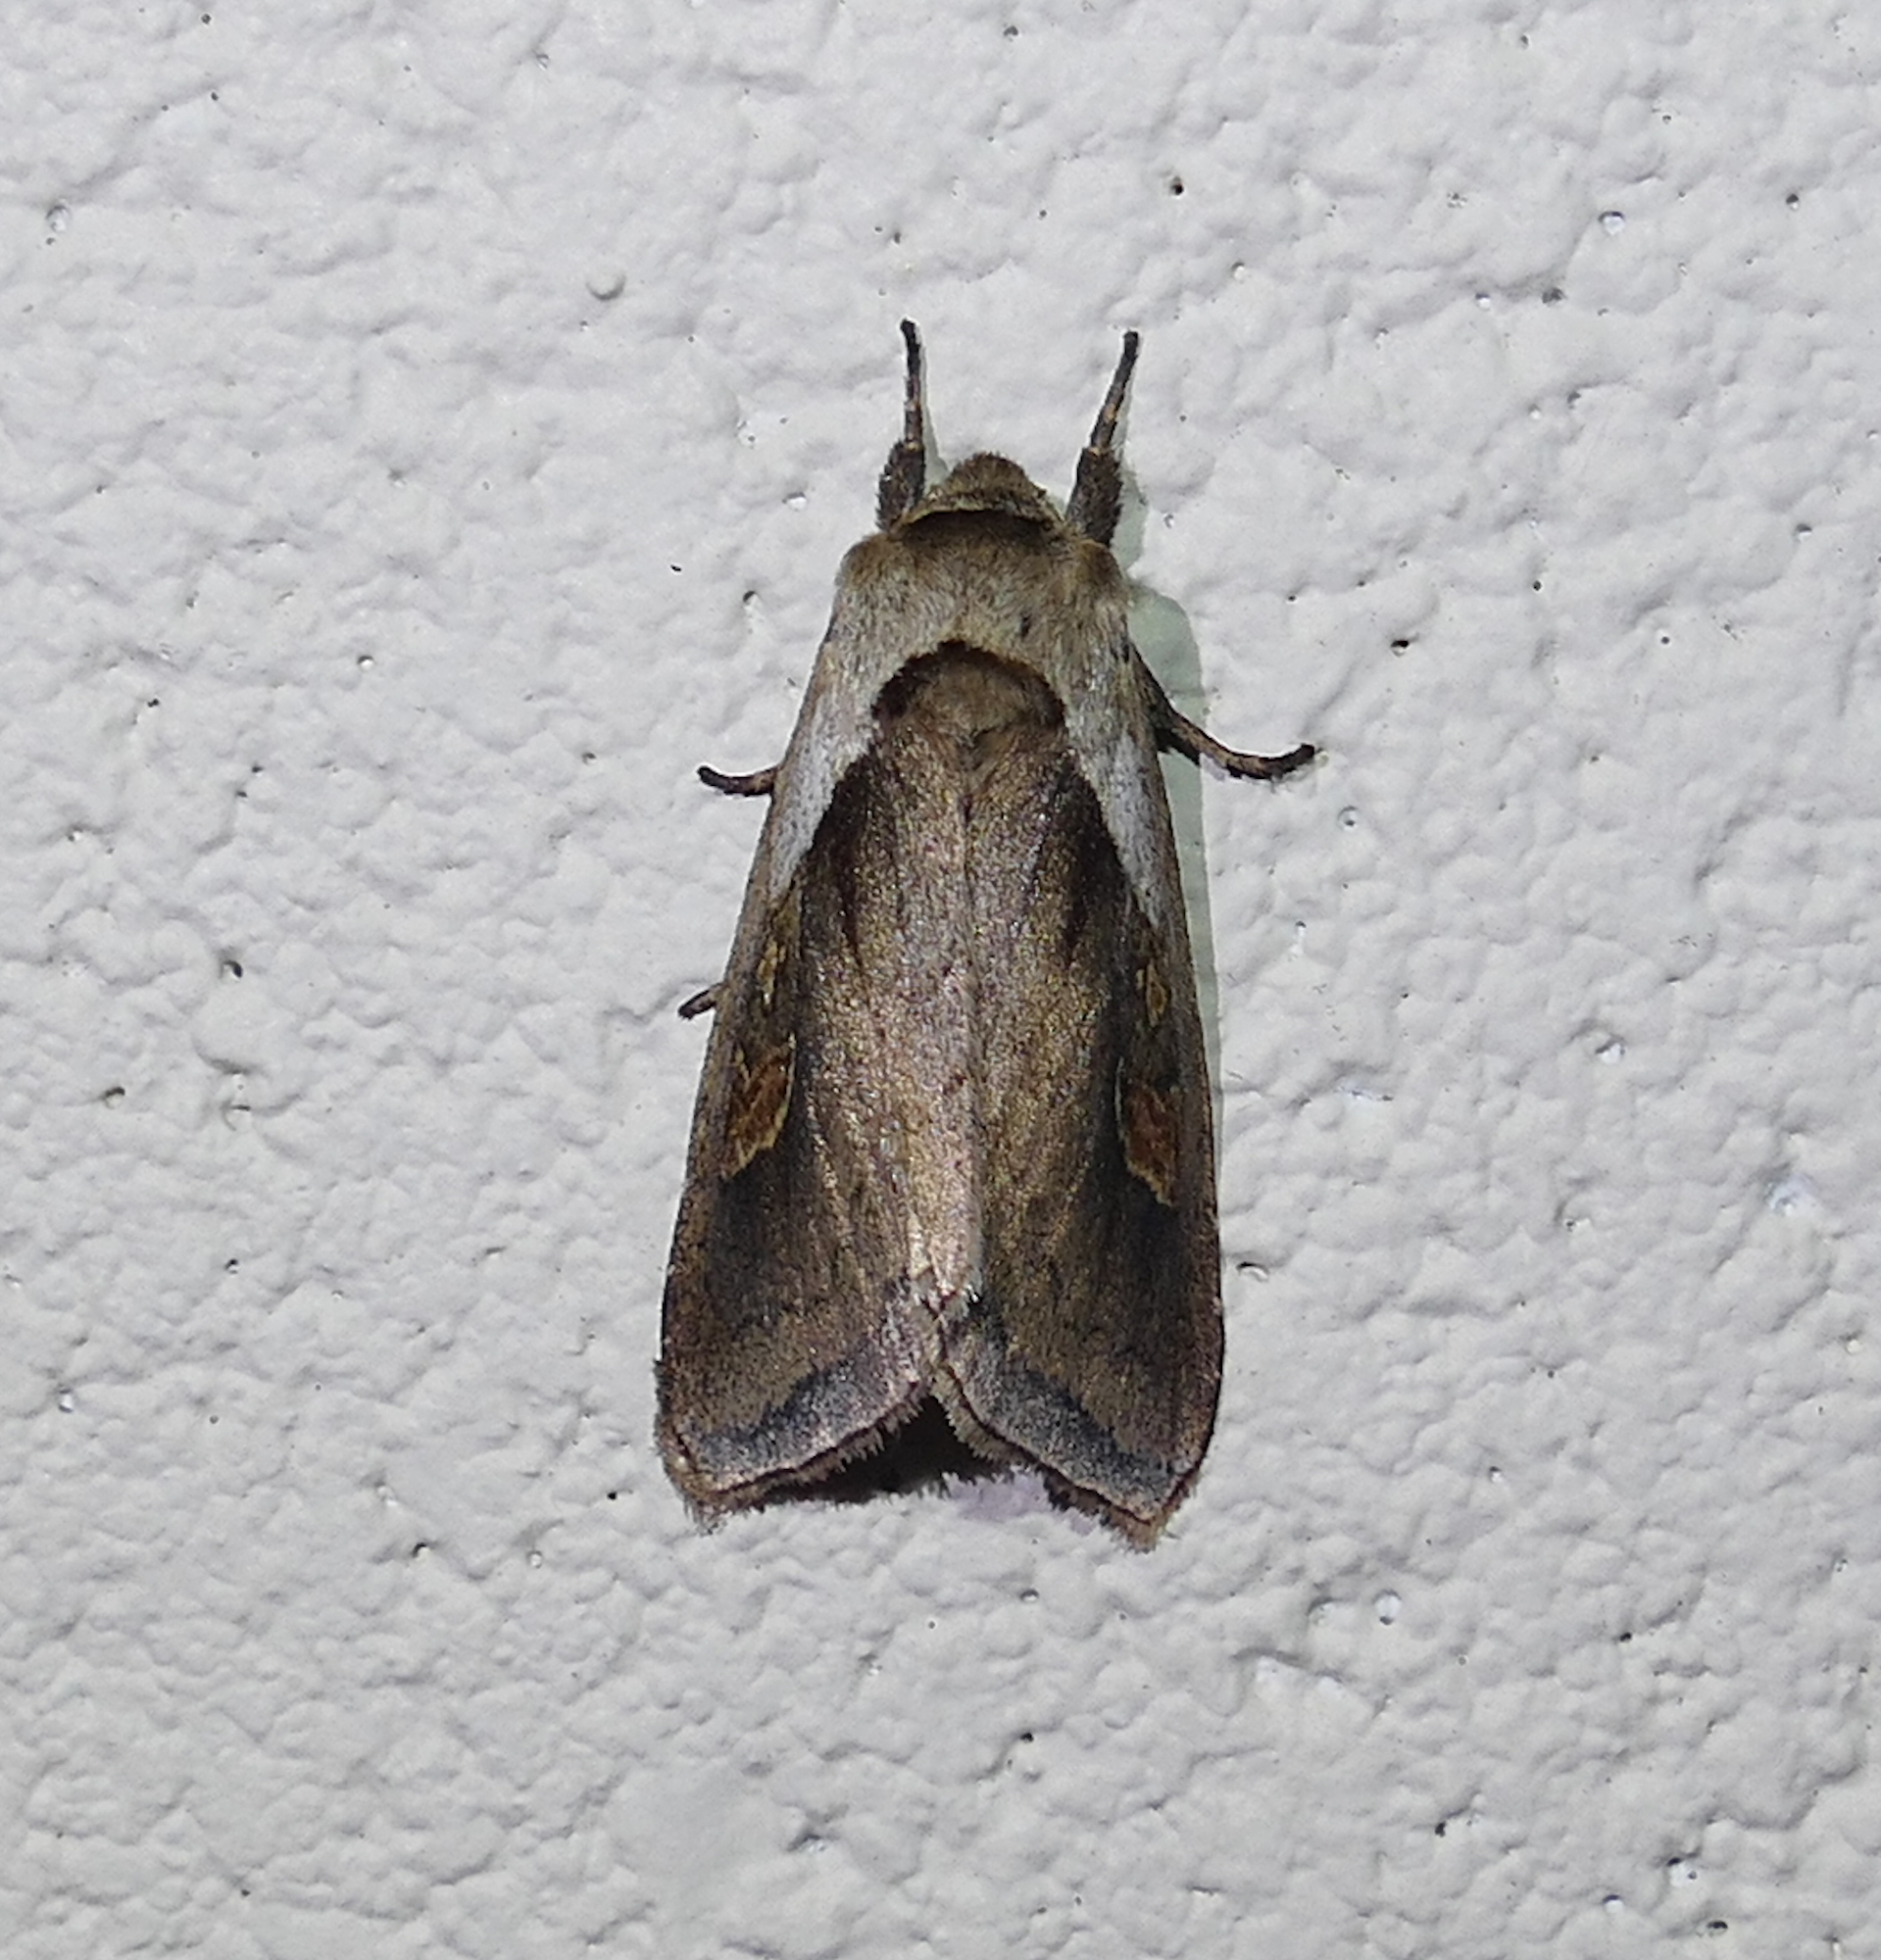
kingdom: Animalia
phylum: Arthropoda
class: Insecta
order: Lepidoptera
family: Noctuidae
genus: Bellura
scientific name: Bellura obliqua
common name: Cattail borer moth
